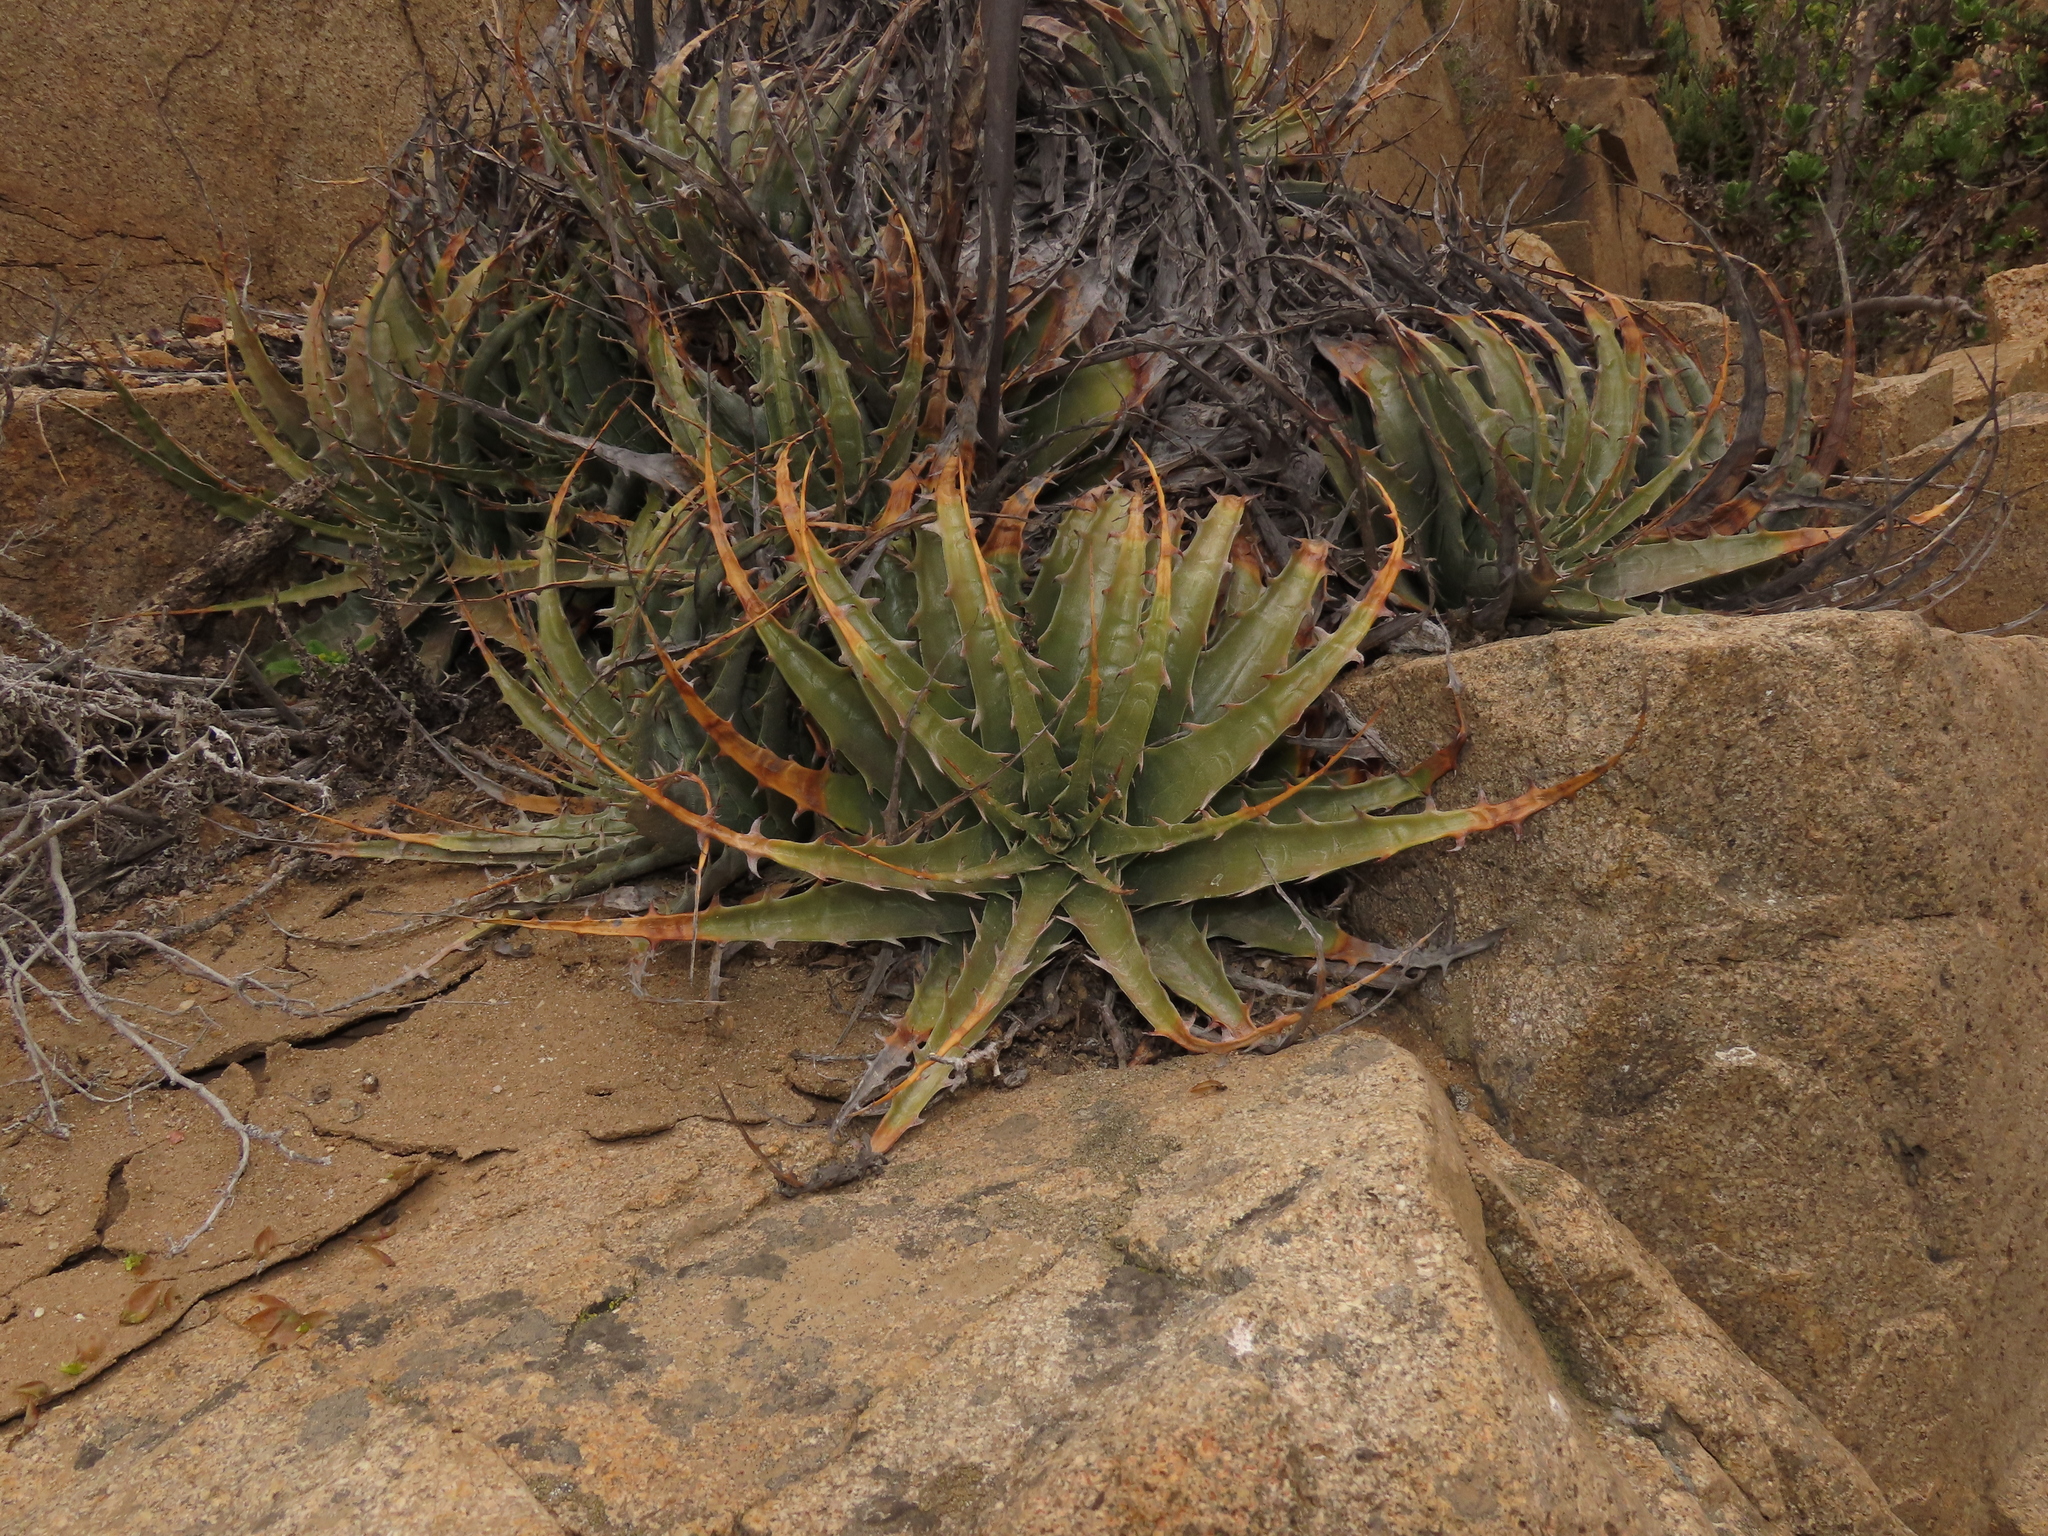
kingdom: Plantae
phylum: Tracheophyta
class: Liliopsida
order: Poales
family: Bromeliaceae
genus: Deuterocohnia
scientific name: Deuterocohnia chrysantha
